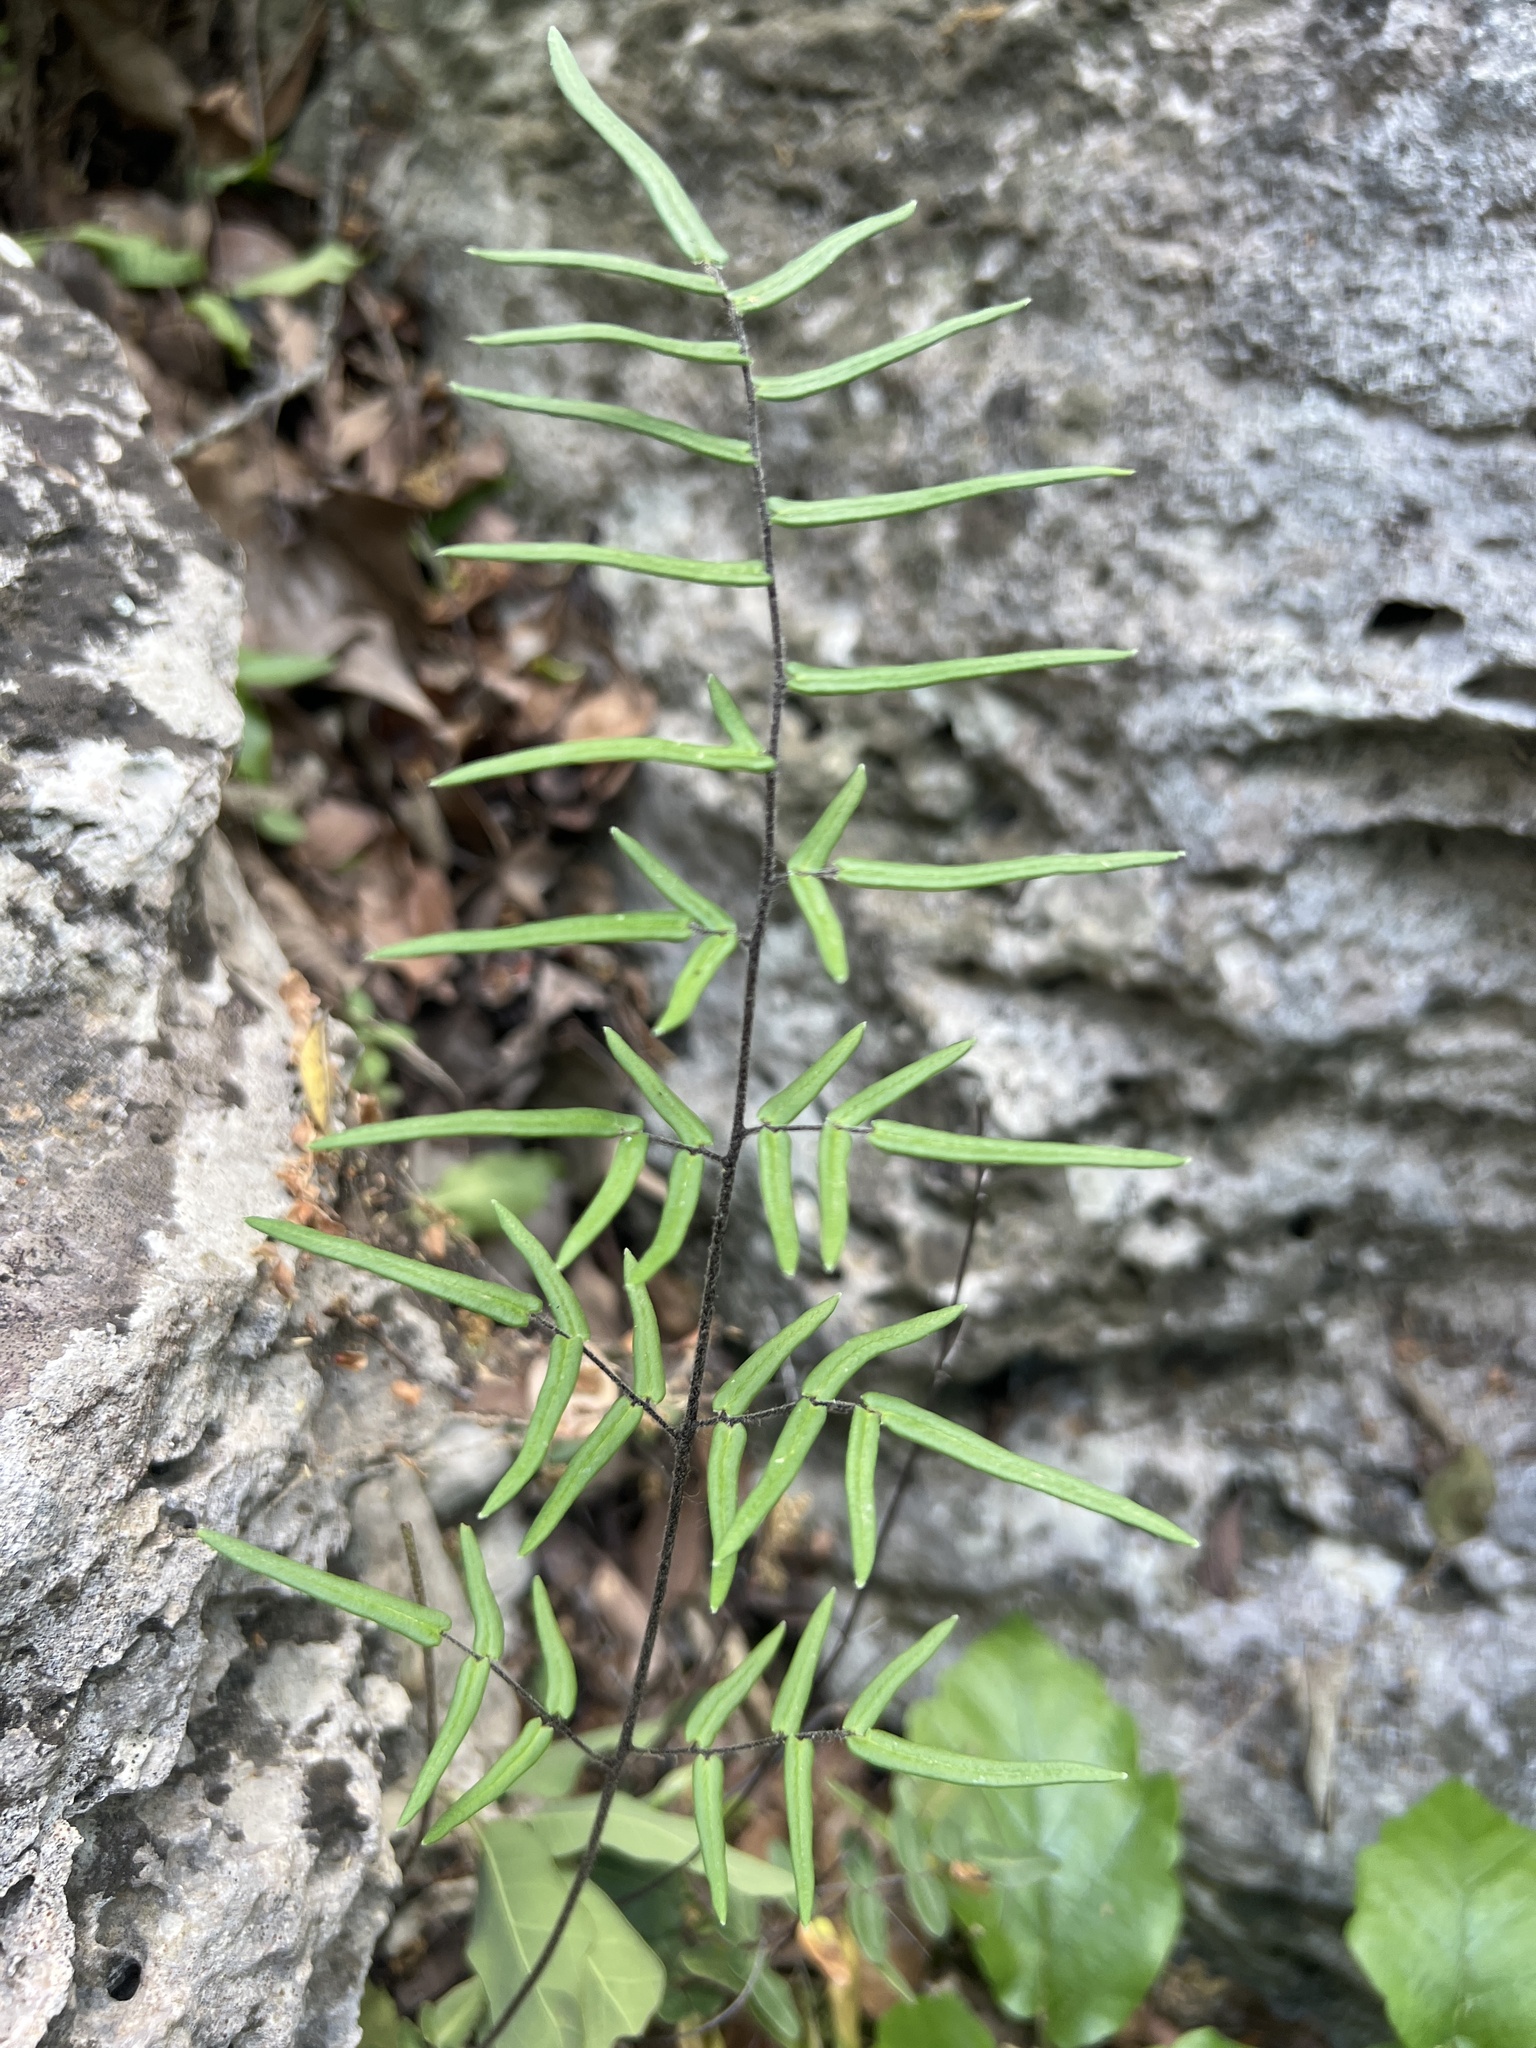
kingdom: Plantae
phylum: Tracheophyta
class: Polypodiopsida
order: Polypodiales
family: Pteridaceae
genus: Pellaea
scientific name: Pellaea atropurpurea
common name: Hairy cliffbrake
